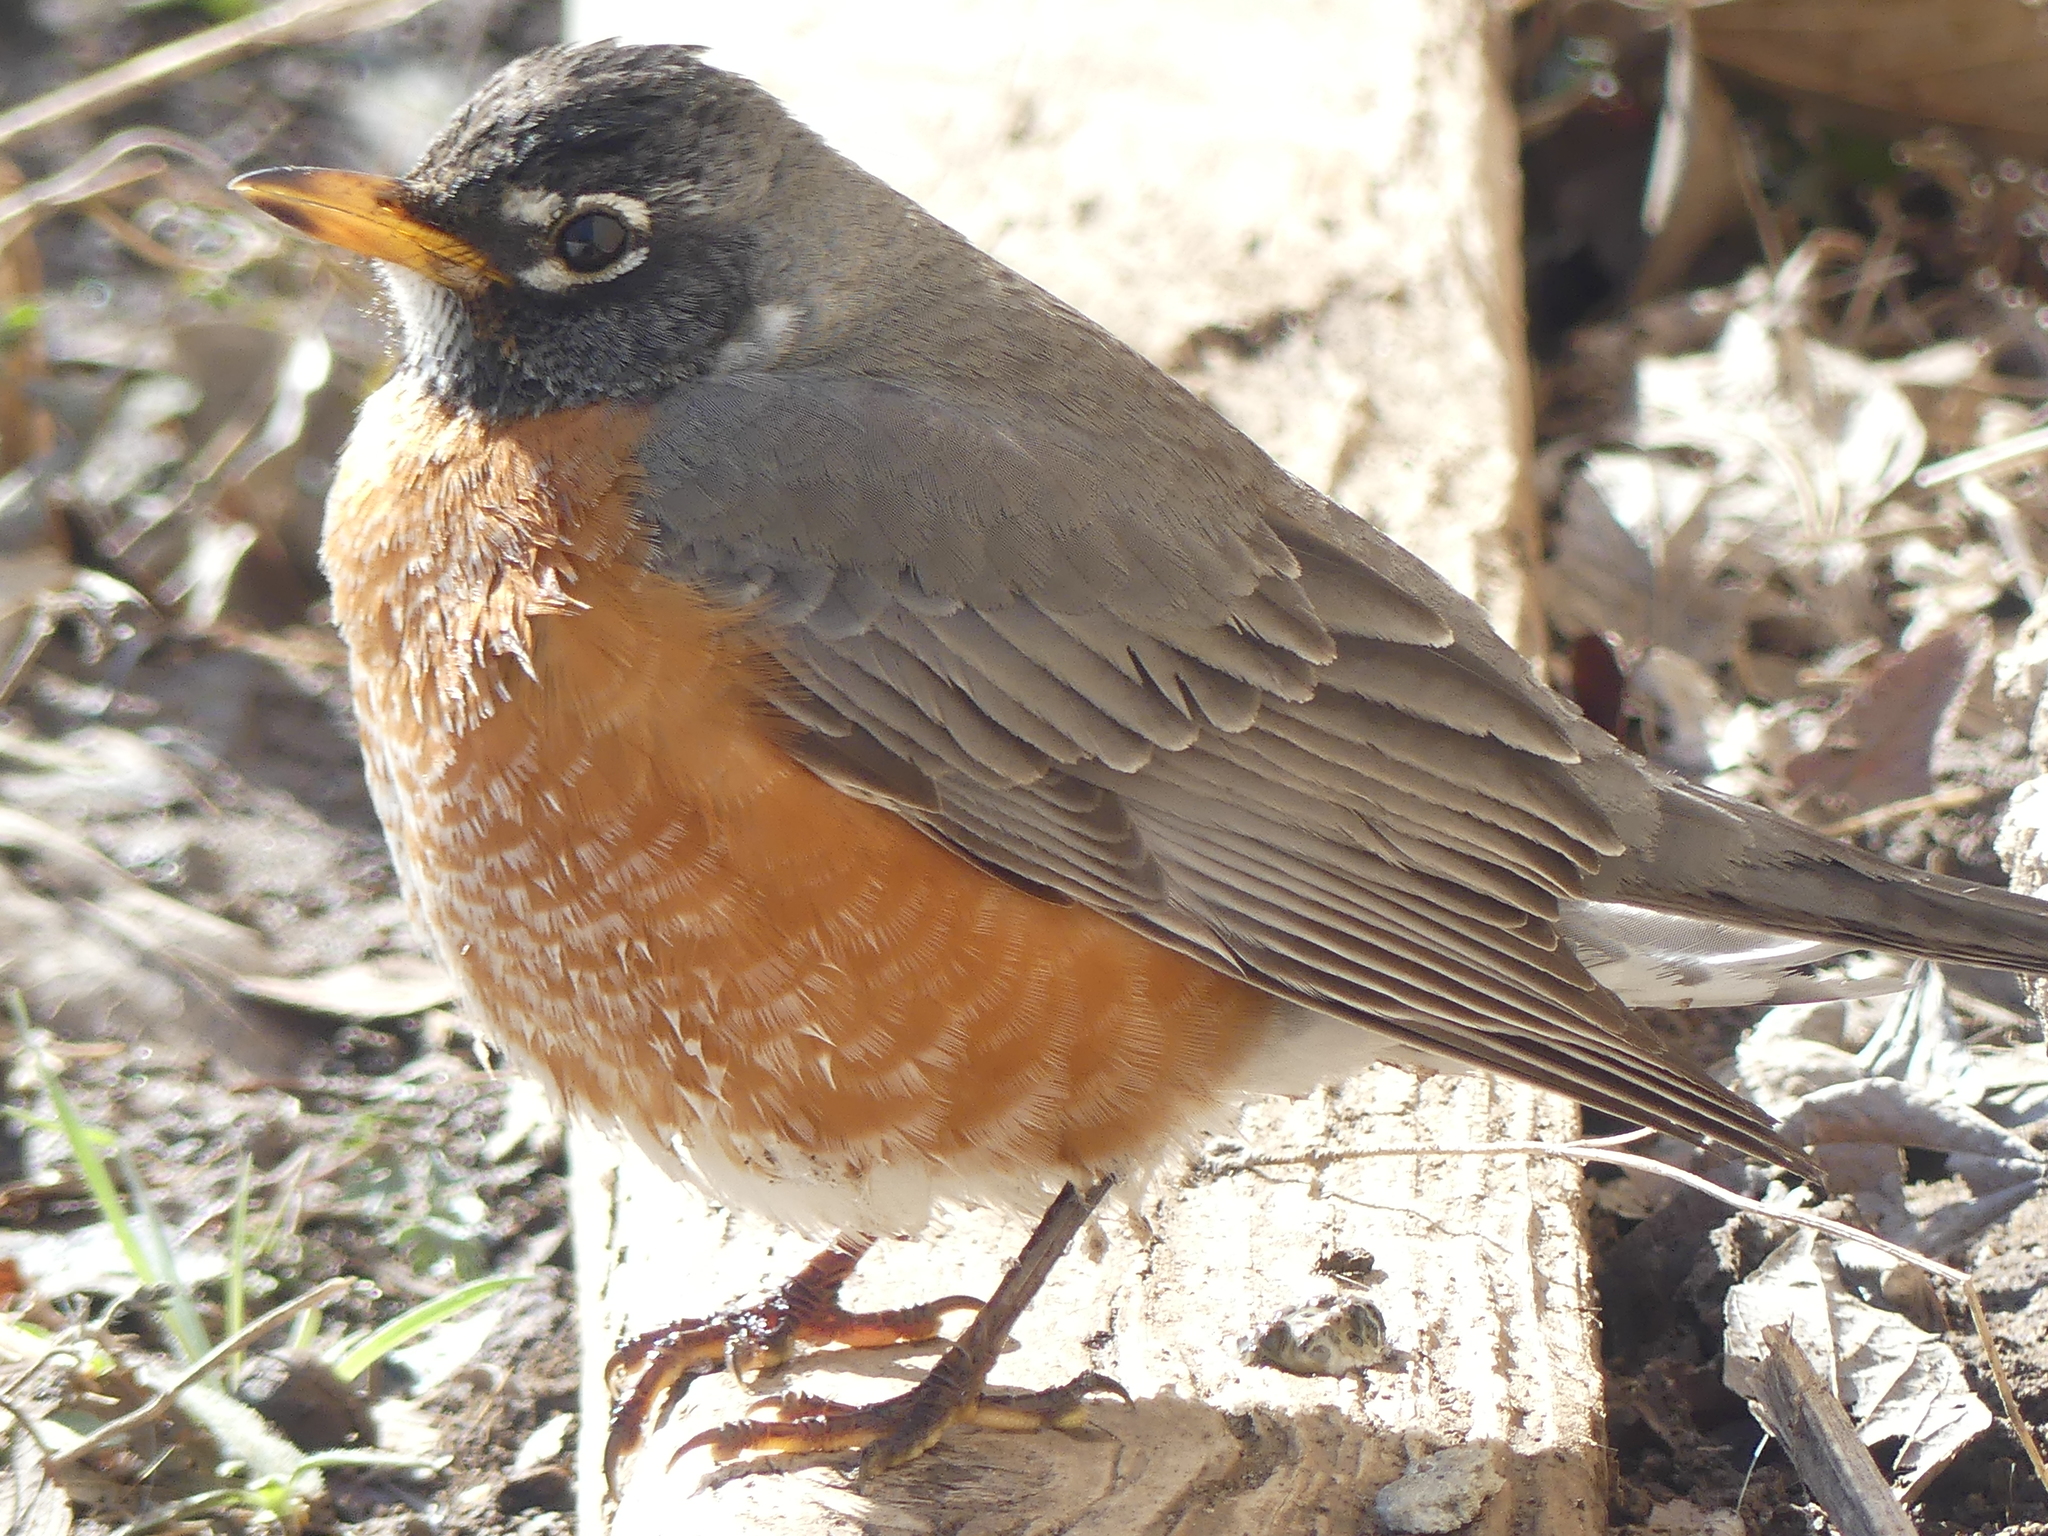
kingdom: Animalia
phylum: Chordata
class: Aves
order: Passeriformes
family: Turdidae
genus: Turdus
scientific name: Turdus migratorius
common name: American robin
